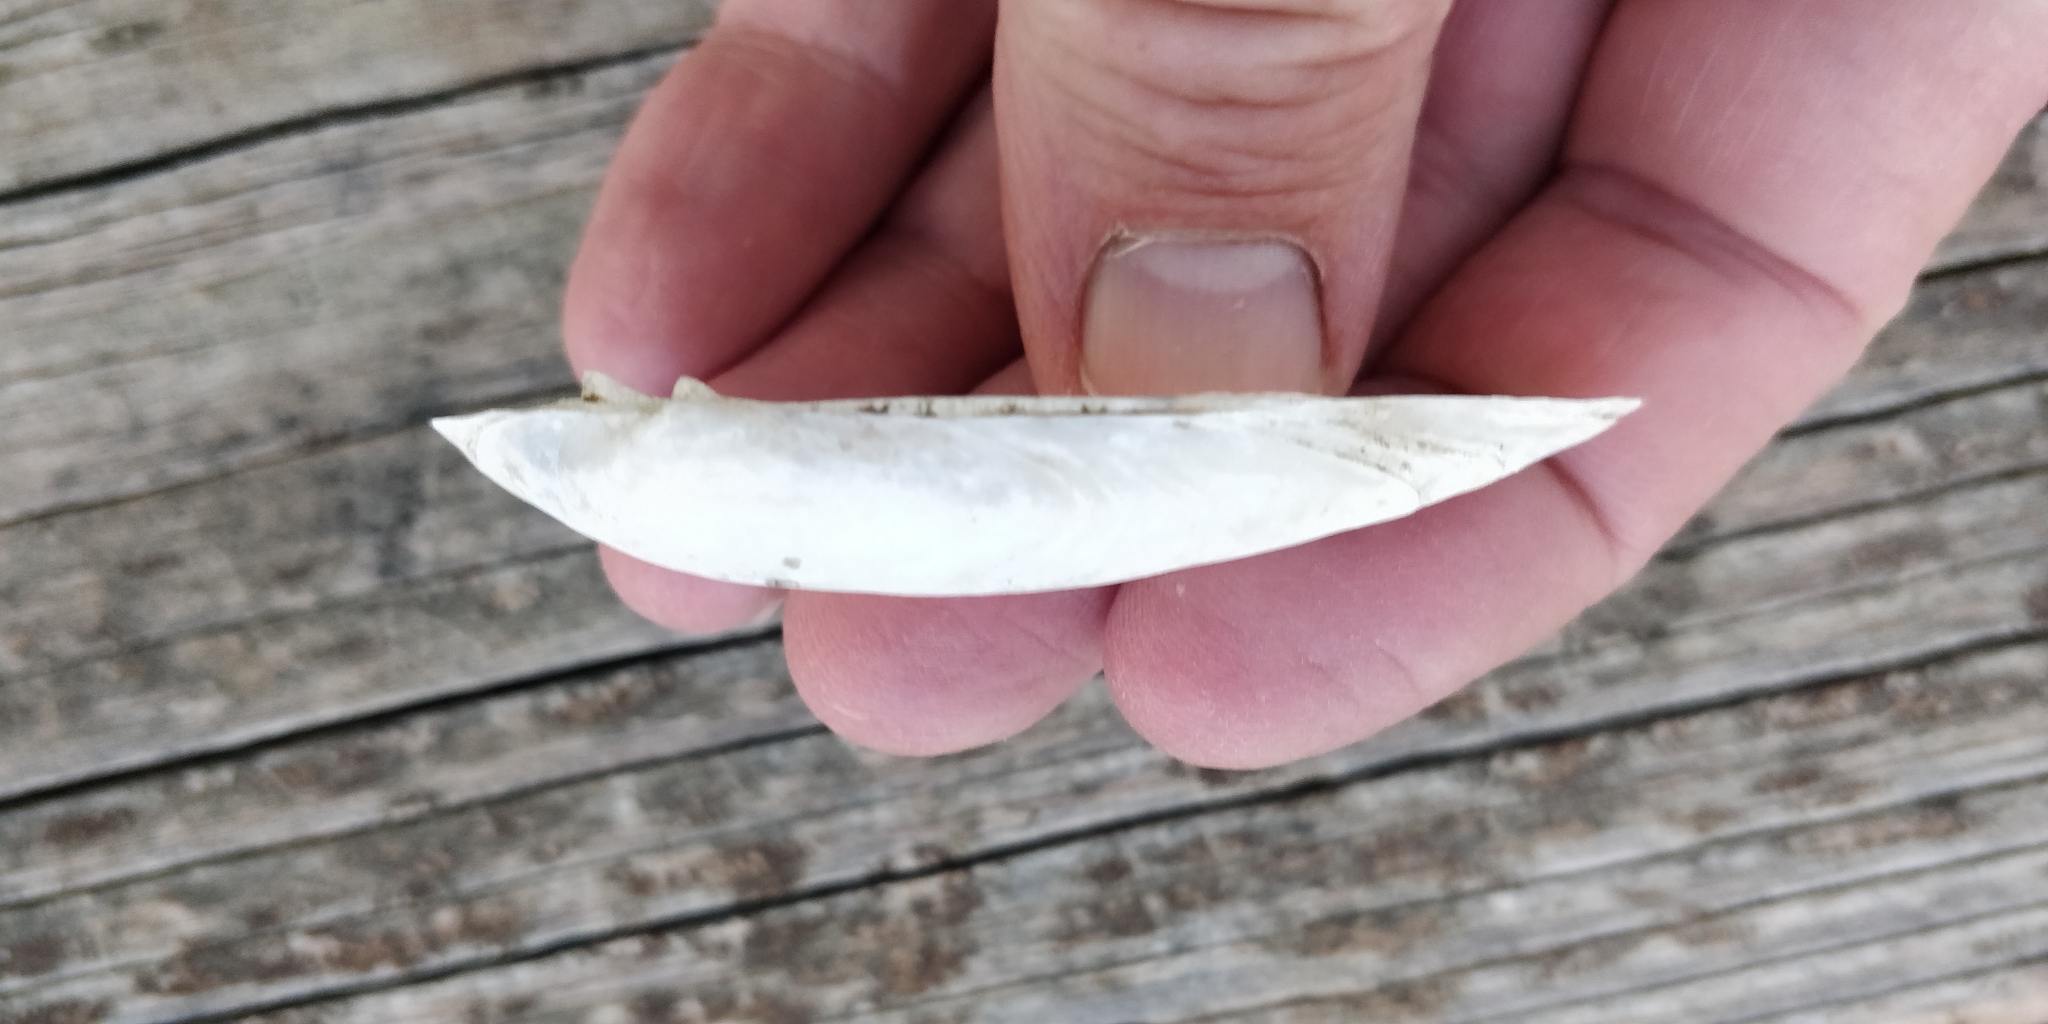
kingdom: Animalia
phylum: Mollusca
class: Bivalvia
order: Unionida
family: Unionidae
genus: Lampsilis
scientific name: Lampsilis teres
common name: Yellow sandshell
